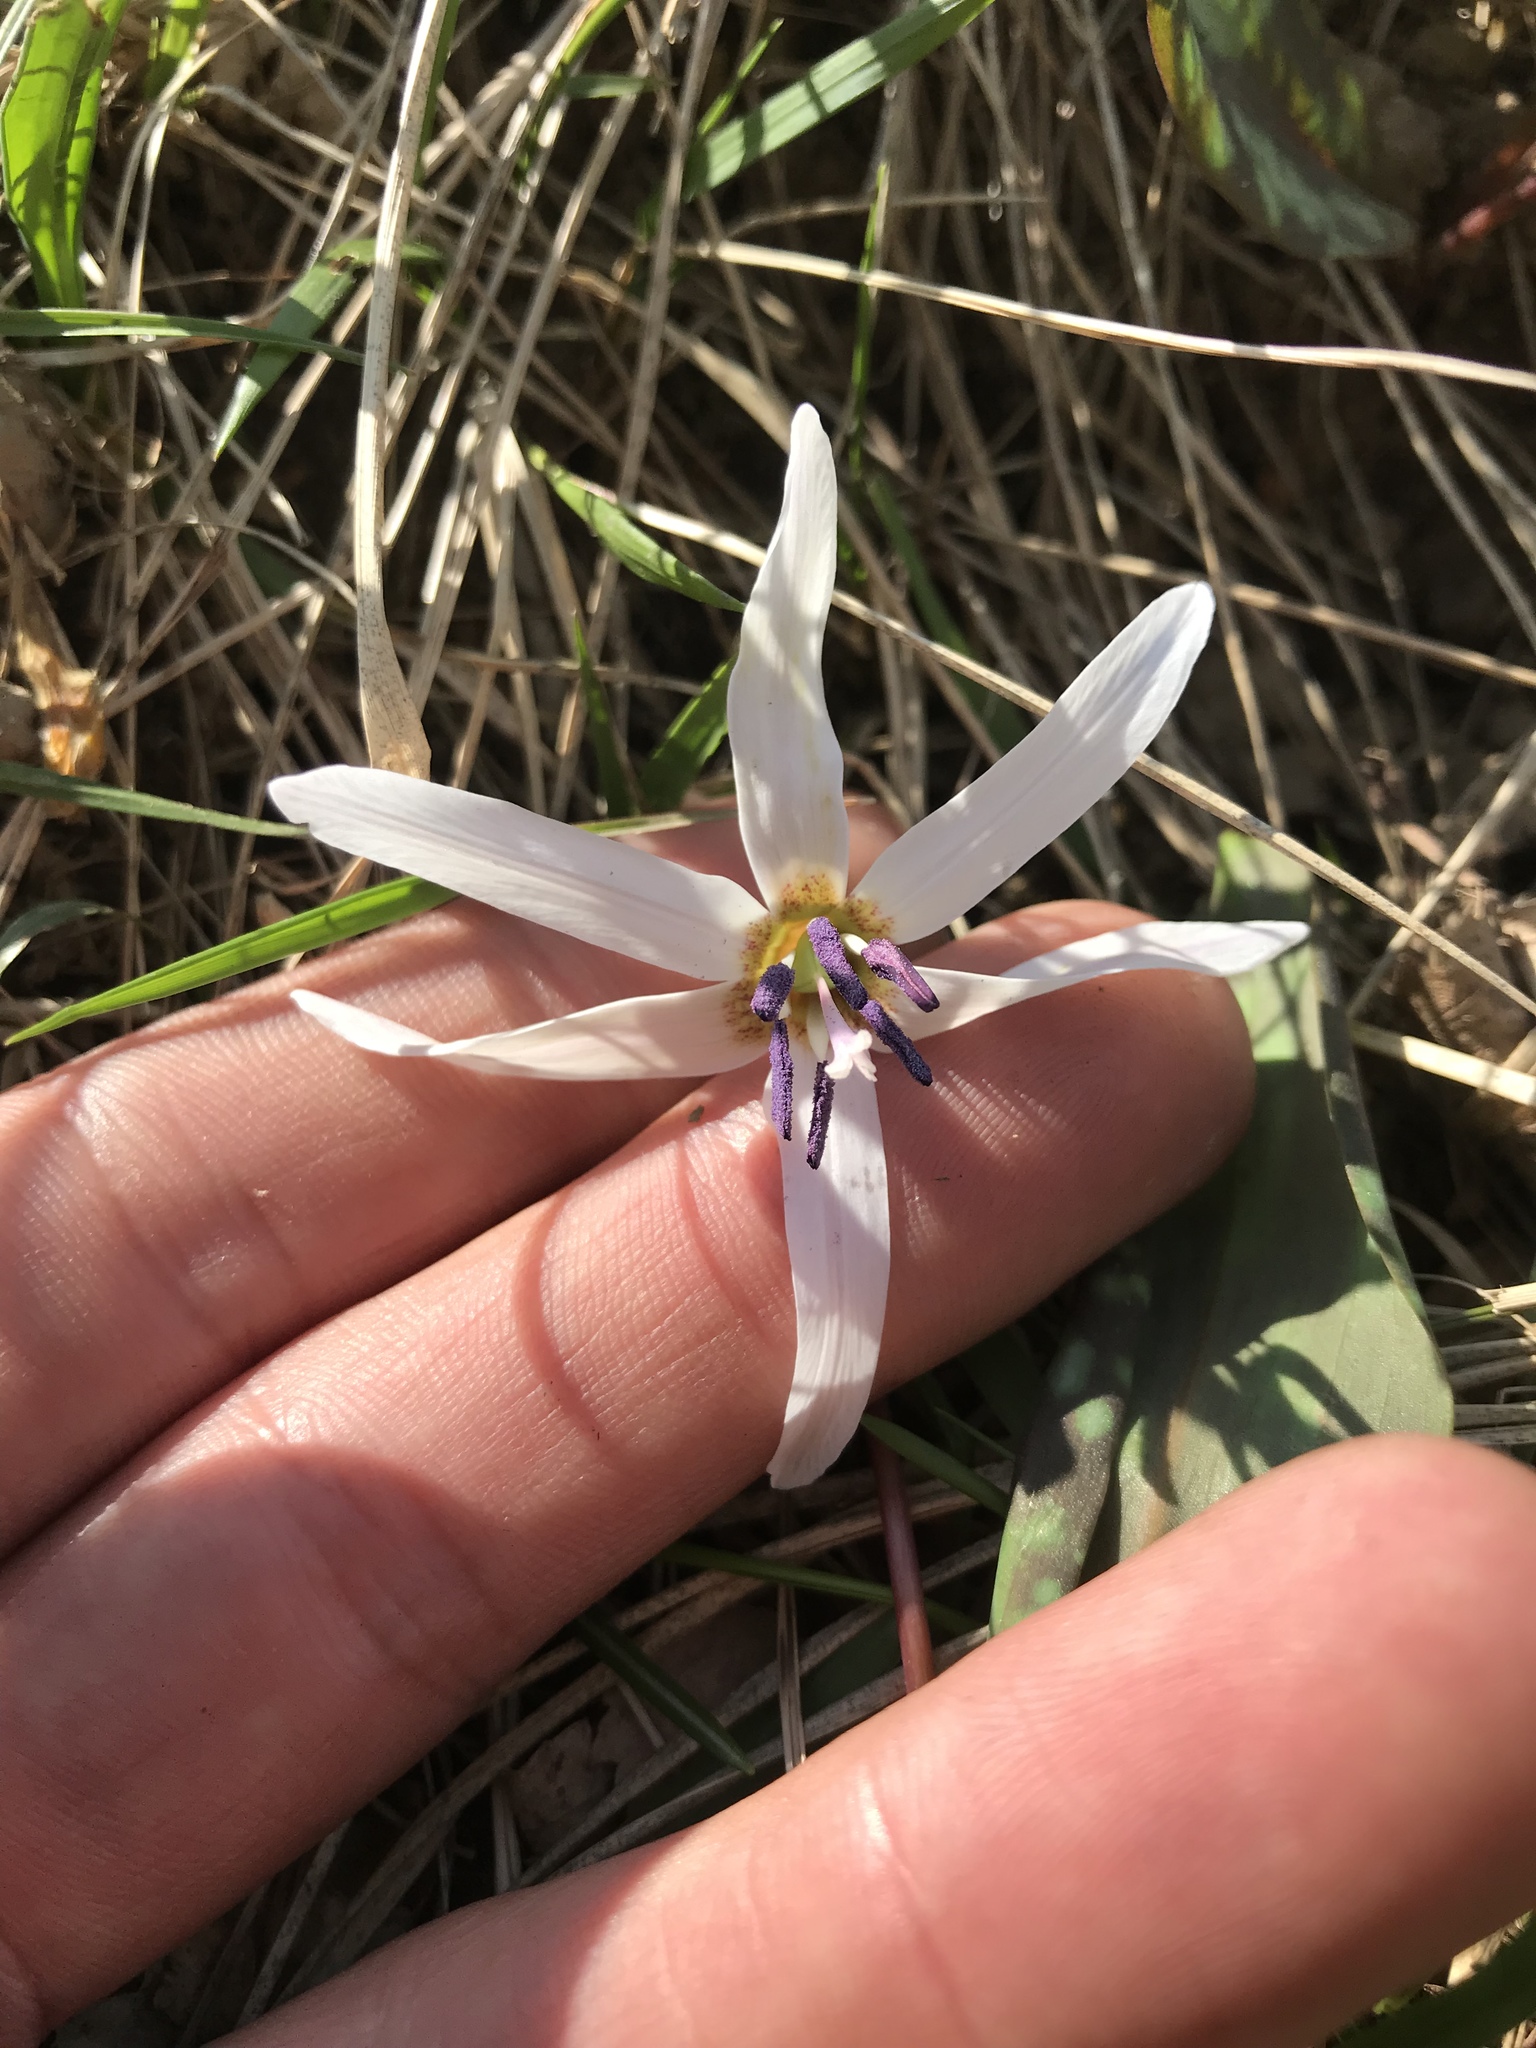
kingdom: Plantae
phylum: Tracheophyta
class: Liliopsida
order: Liliales
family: Liliaceae
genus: Erythronium
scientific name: Erythronium dens-canis
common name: Dog's-tooth-violet
